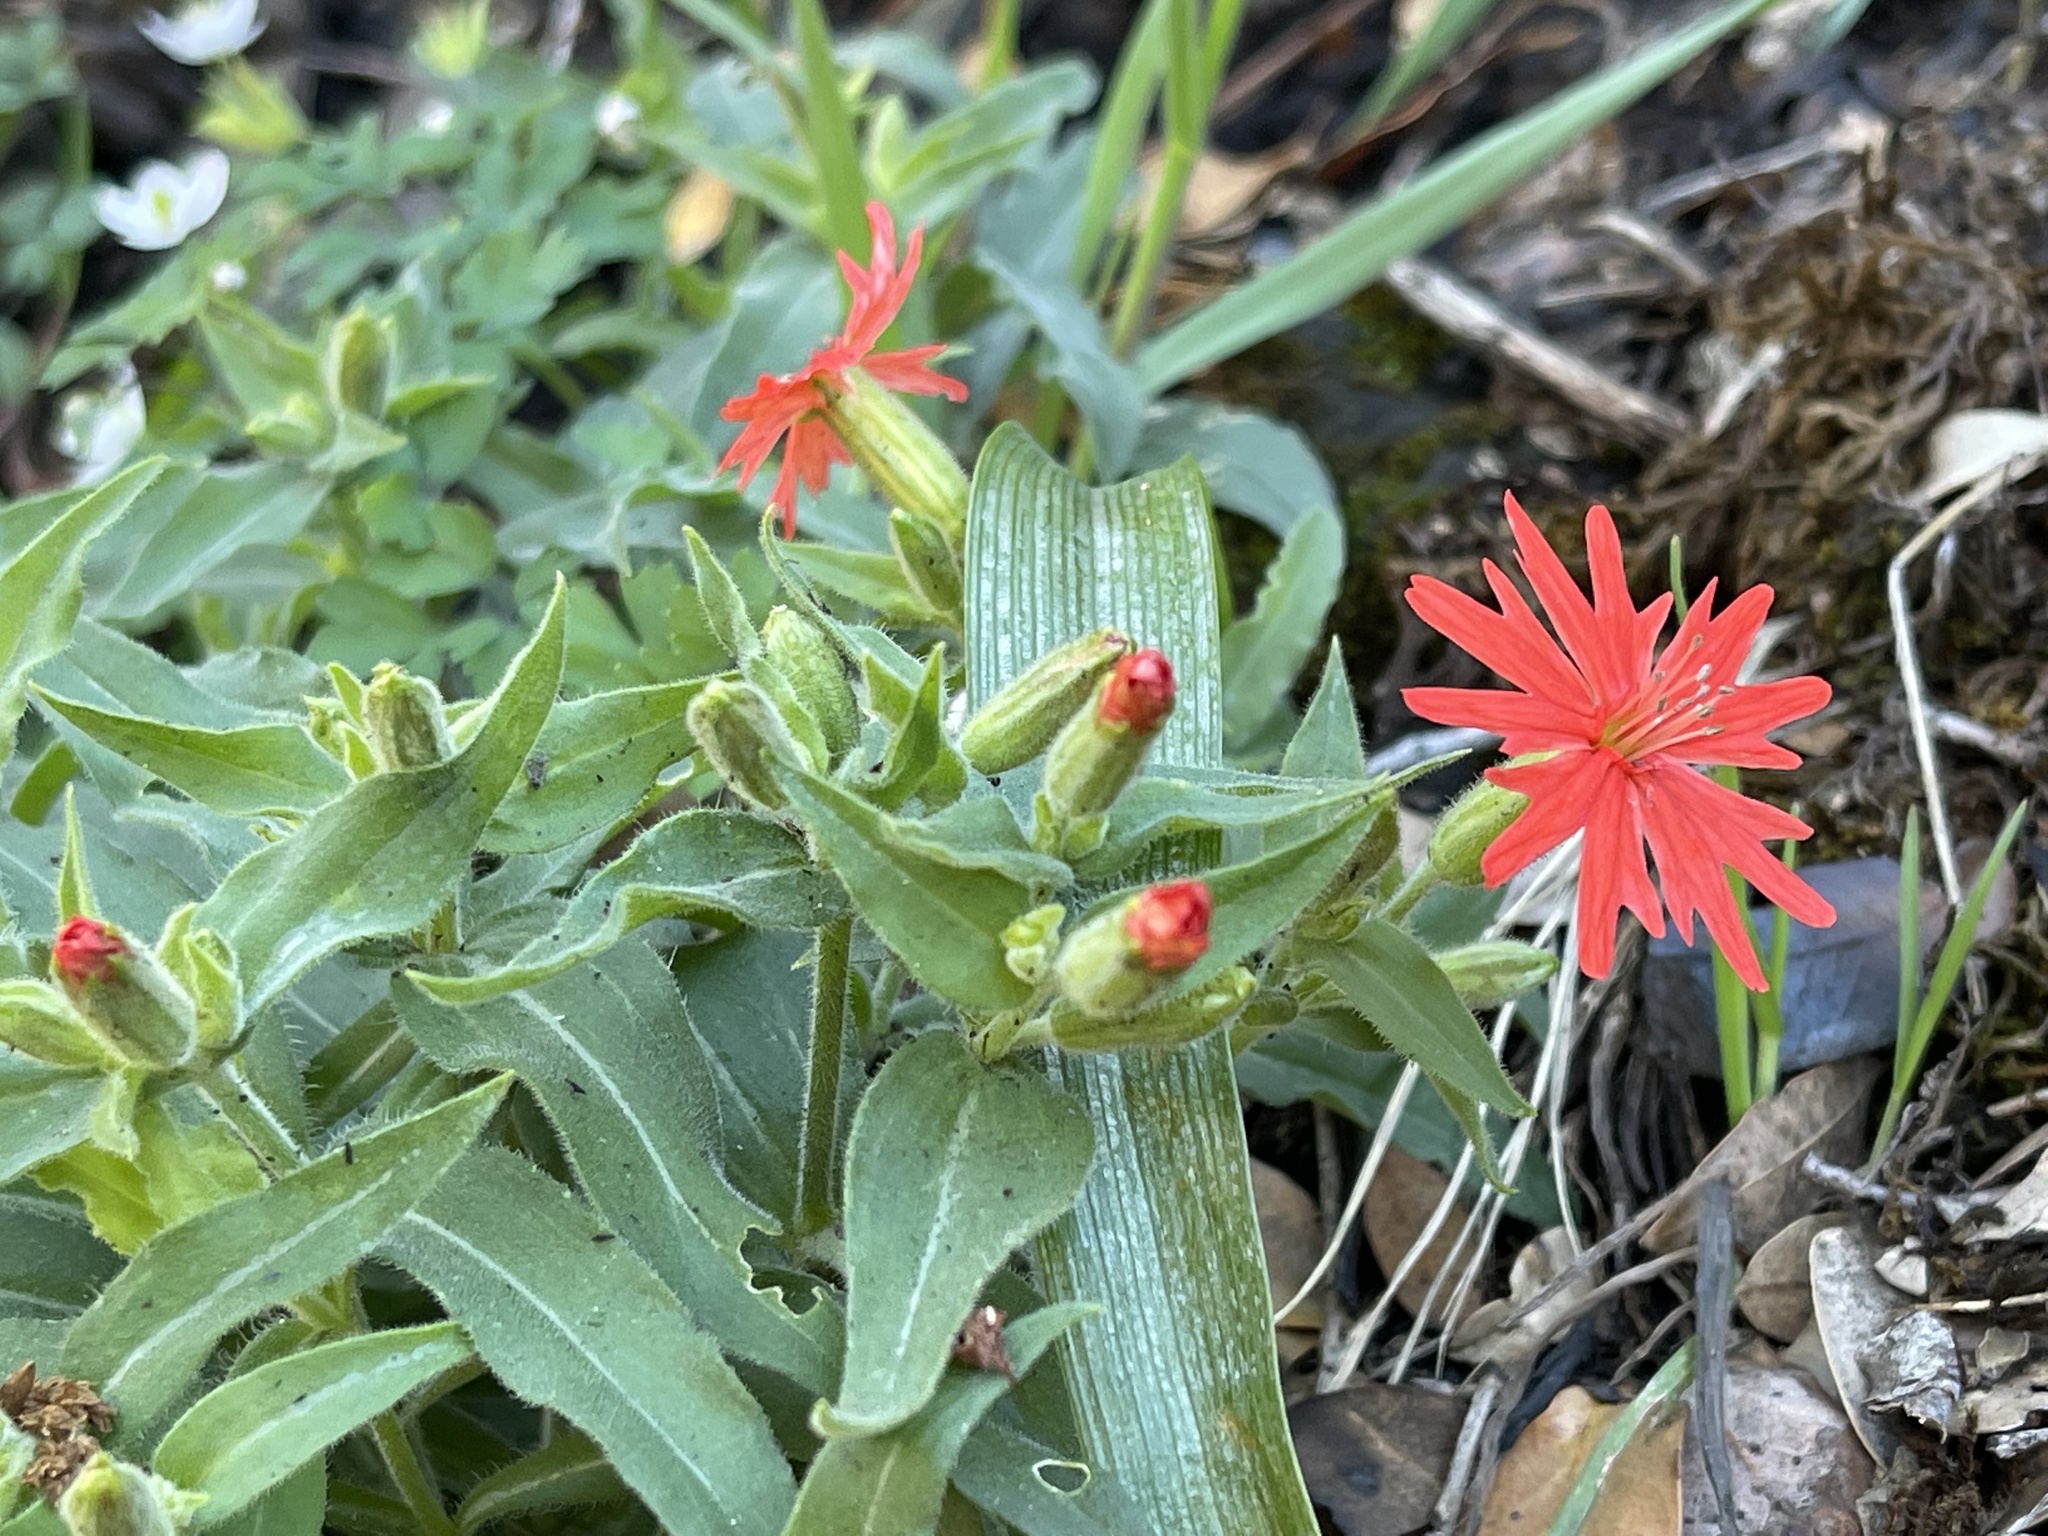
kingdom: Plantae
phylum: Tracheophyta
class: Magnoliopsida
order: Caryophyllales
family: Caryophyllaceae
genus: Silene
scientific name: Silene laciniata
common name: Indian-pink
